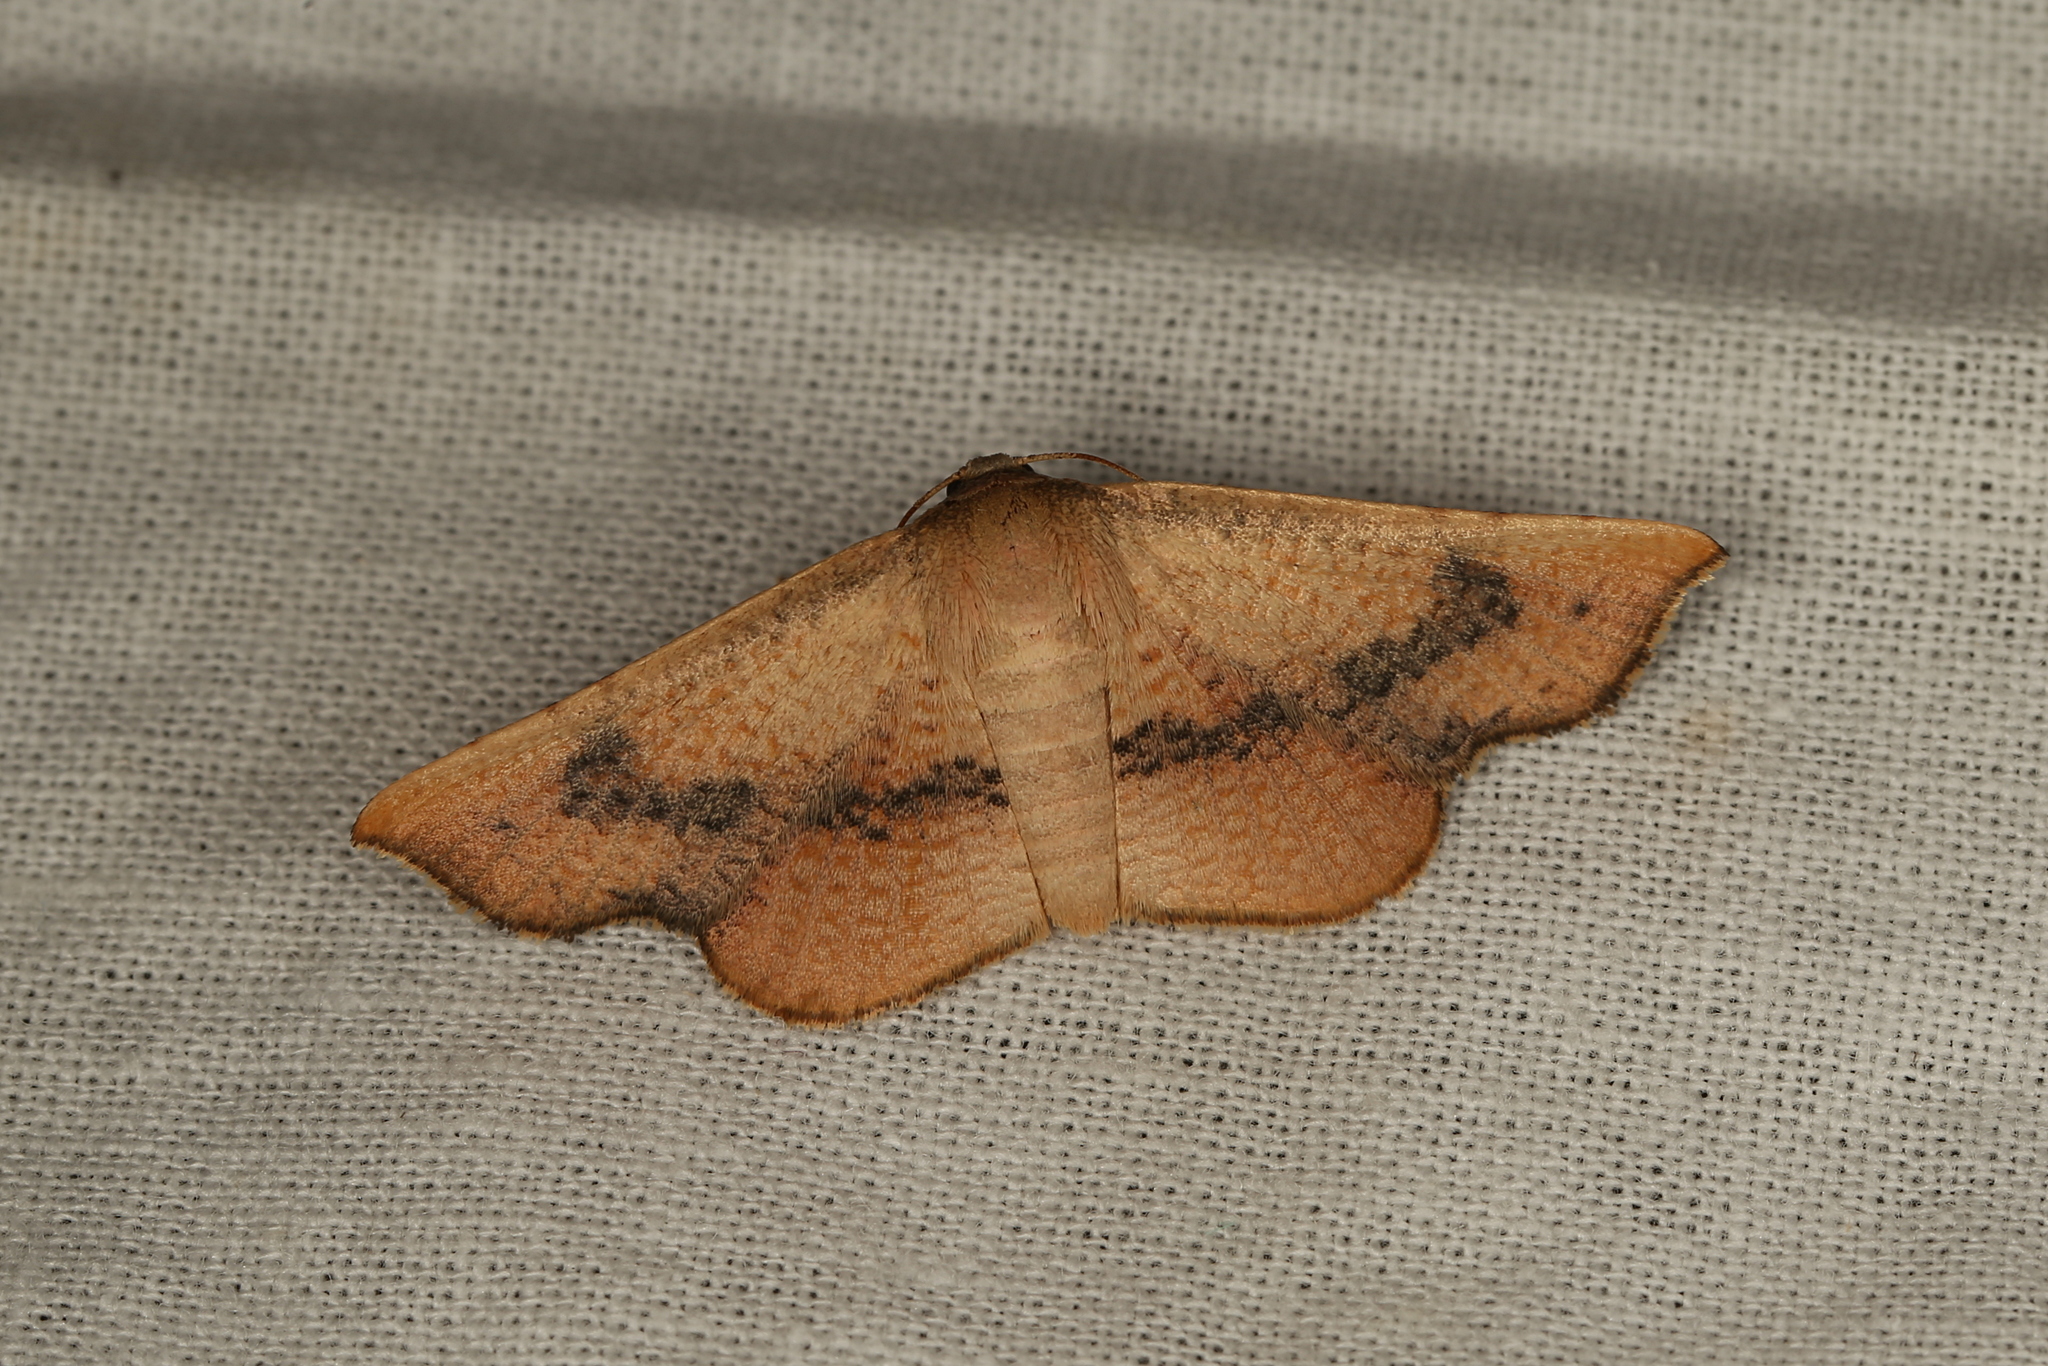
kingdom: Animalia
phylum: Arthropoda
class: Insecta
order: Lepidoptera
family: Thyrididae
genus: Aglaopus
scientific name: Aglaopus centiginosa
